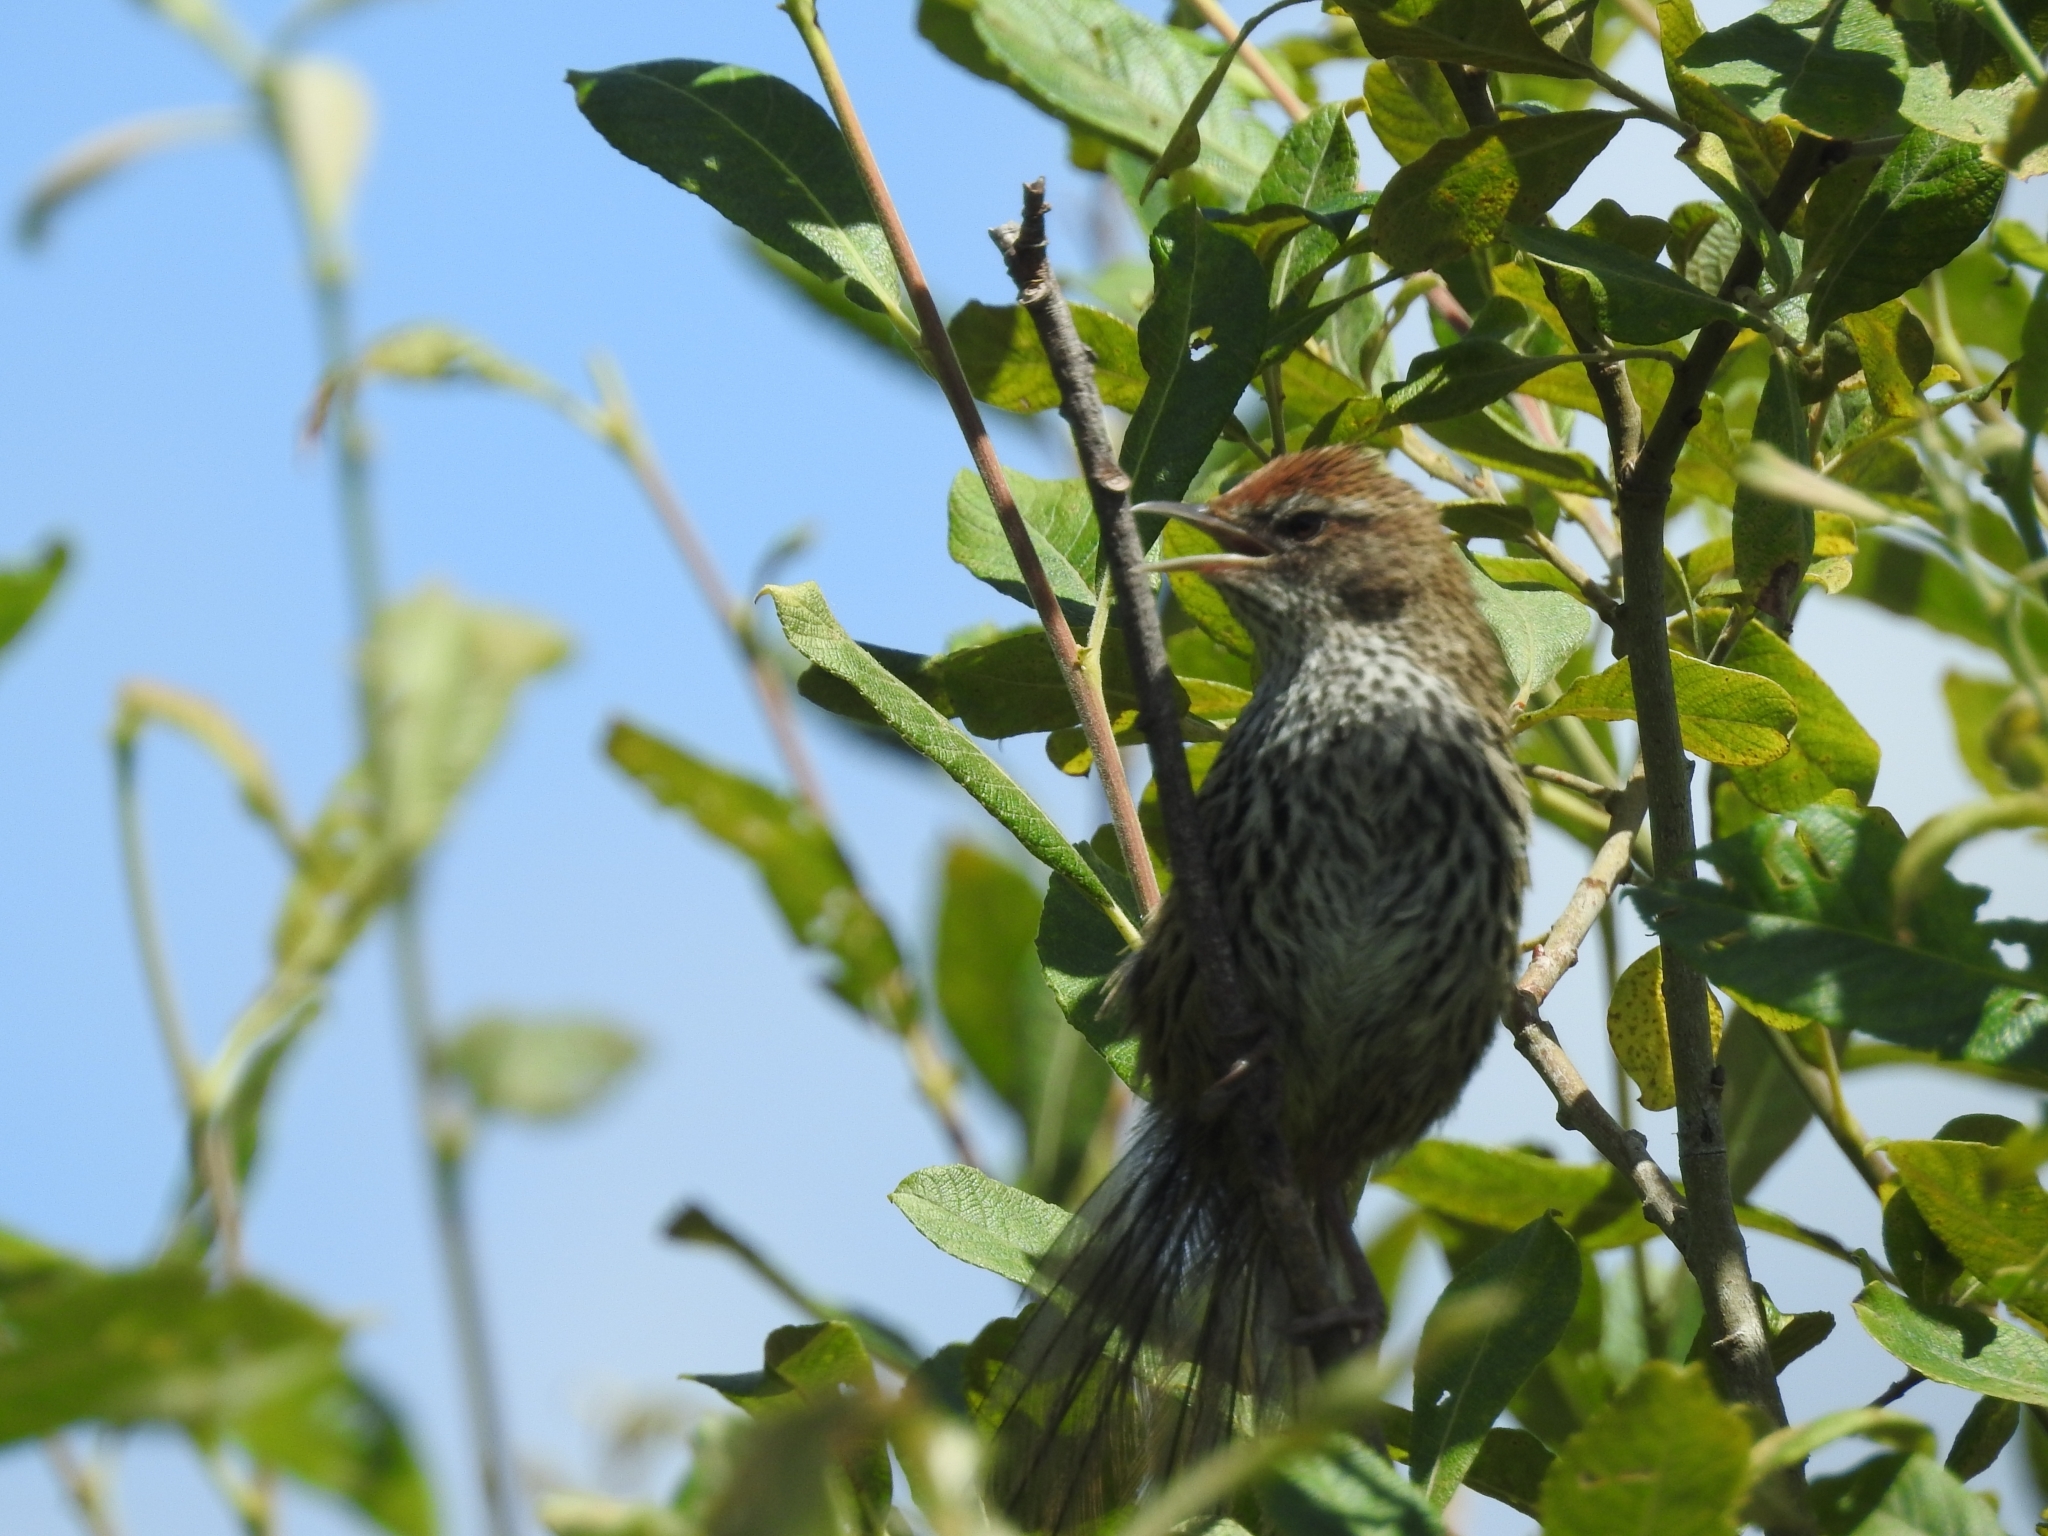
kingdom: Animalia
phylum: Chordata
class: Aves
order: Passeriformes
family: Locustellidae
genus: Megalurus
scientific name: Megalurus punctatus
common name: New zealand fernbird
